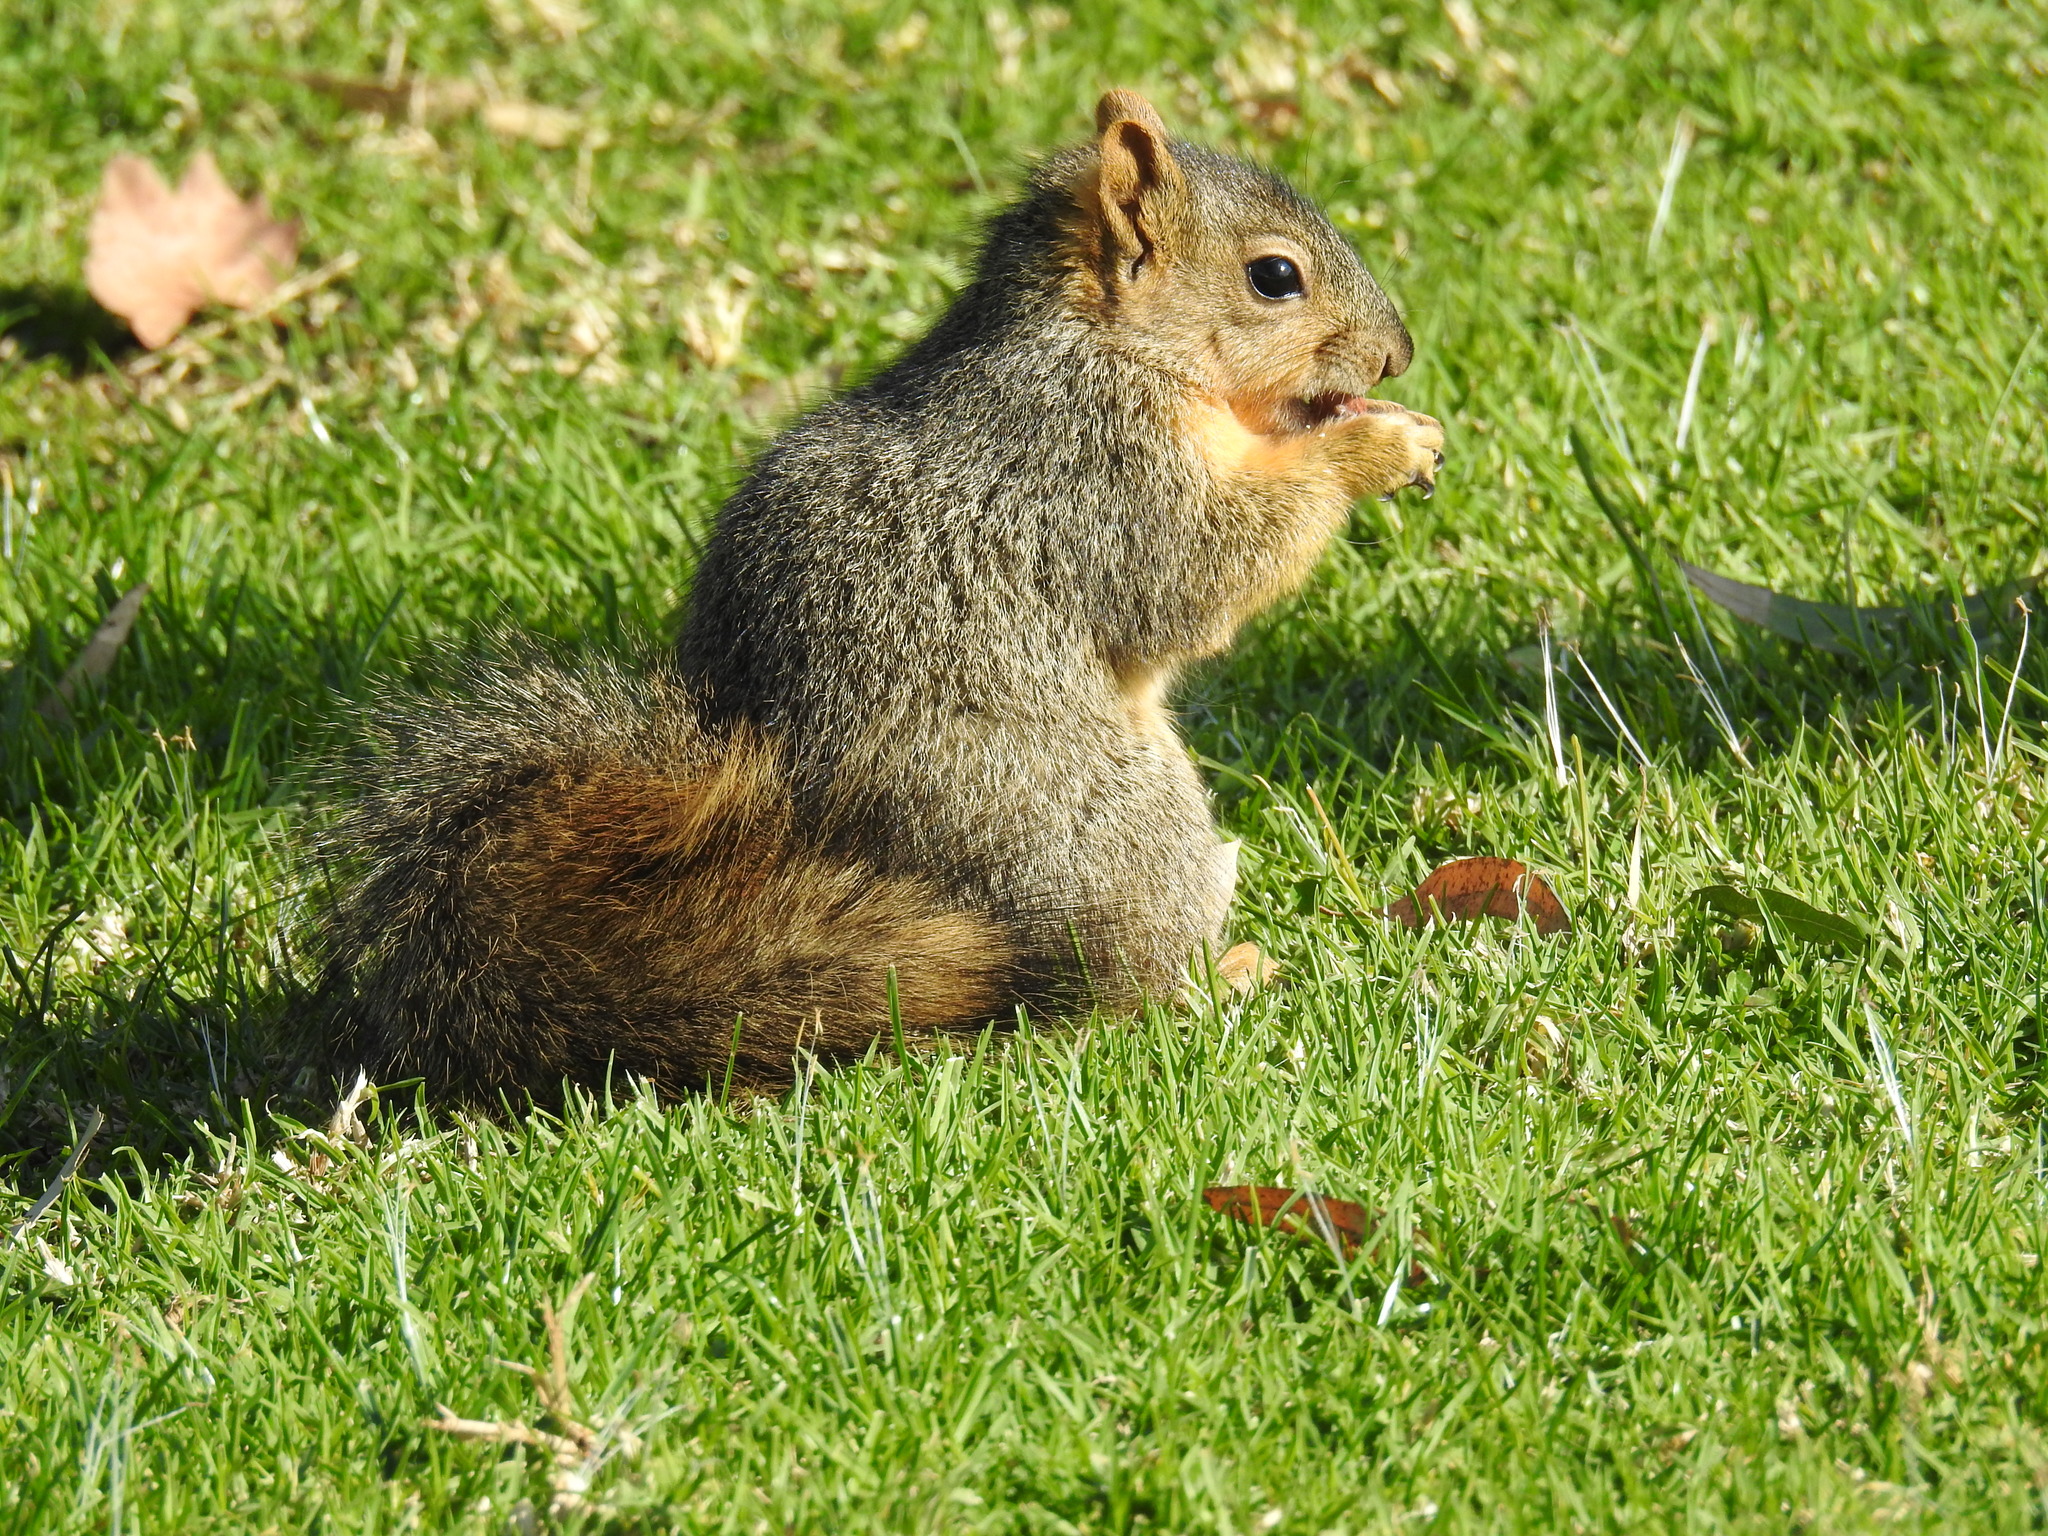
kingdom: Animalia
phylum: Chordata
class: Mammalia
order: Rodentia
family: Sciuridae
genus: Sciurus
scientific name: Sciurus niger
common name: Fox squirrel
